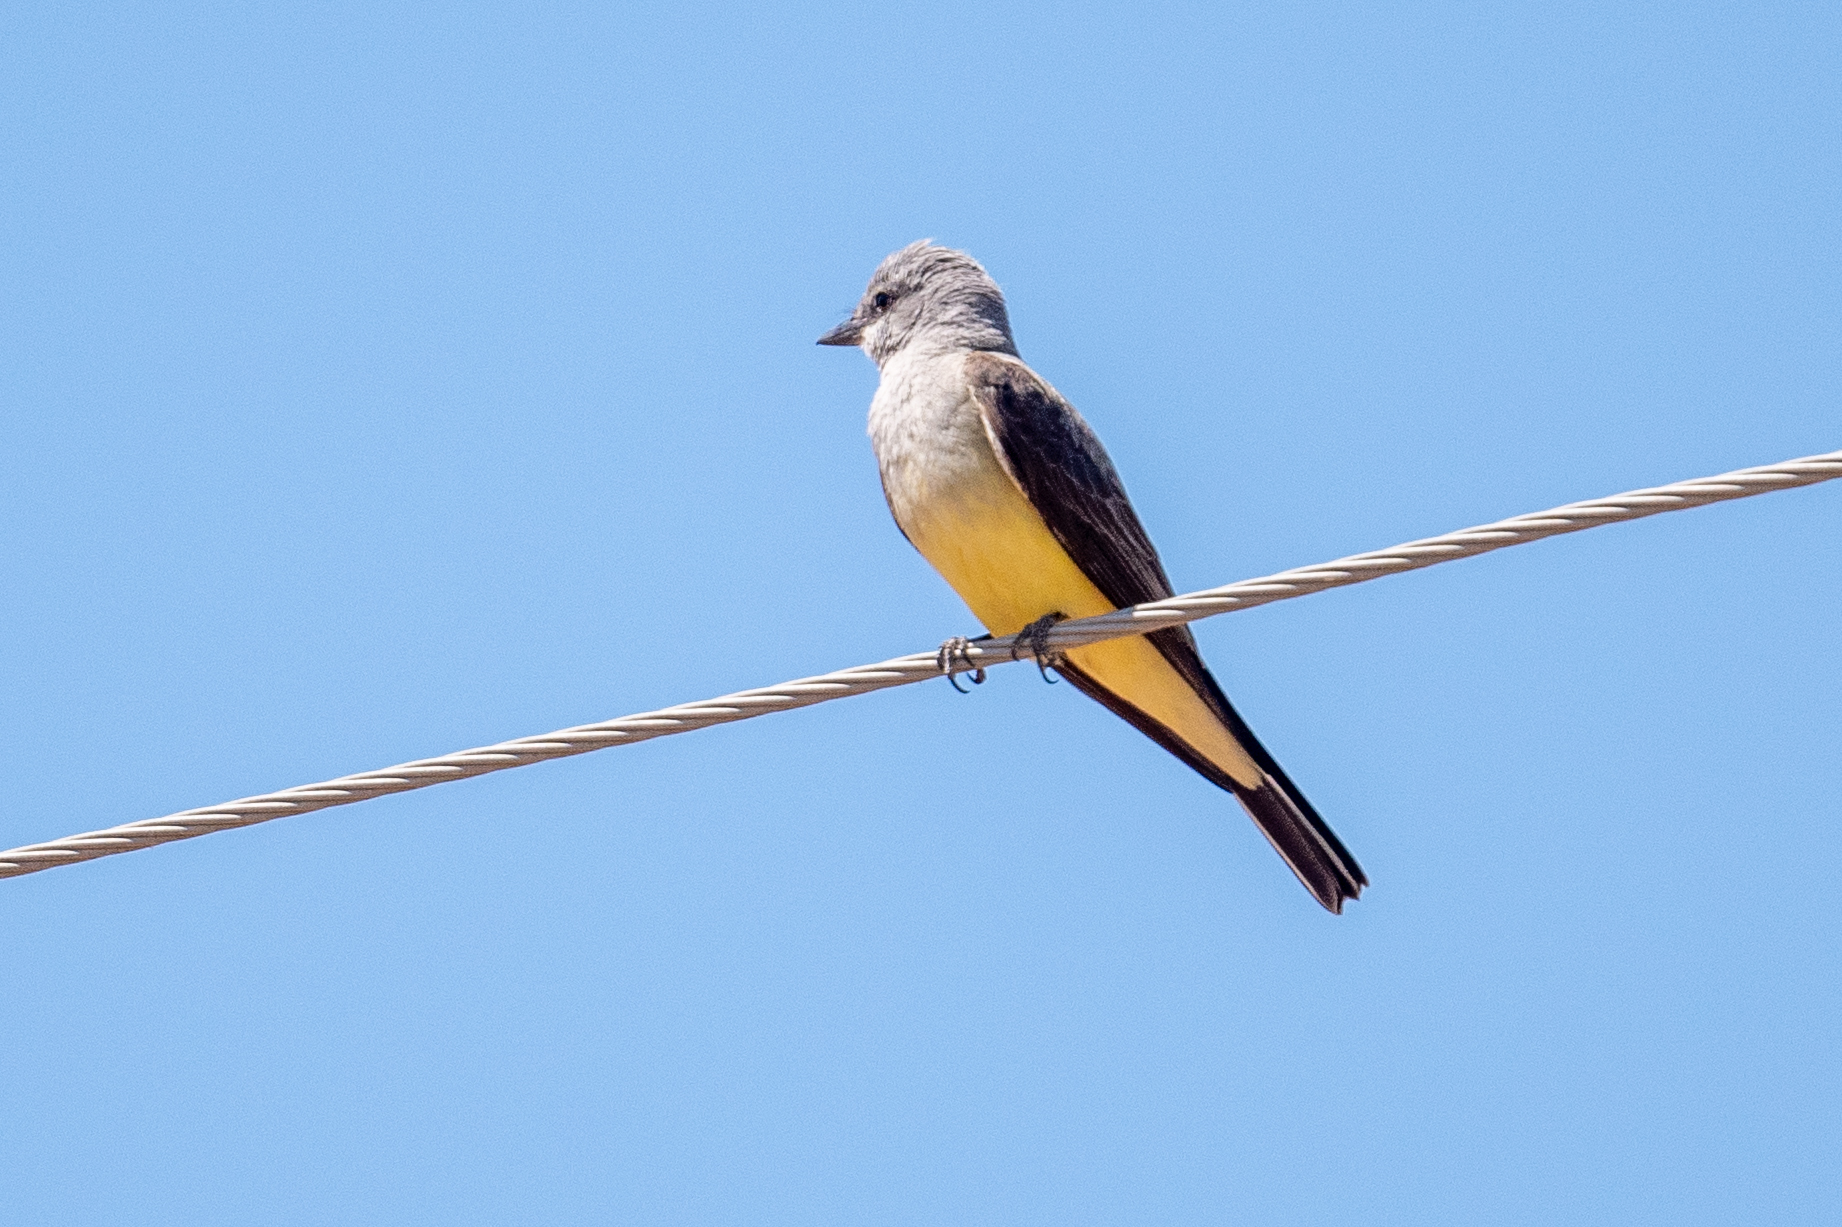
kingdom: Animalia
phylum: Chordata
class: Aves
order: Passeriformes
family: Tyrannidae
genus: Tyrannus
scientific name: Tyrannus verticalis
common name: Western kingbird
